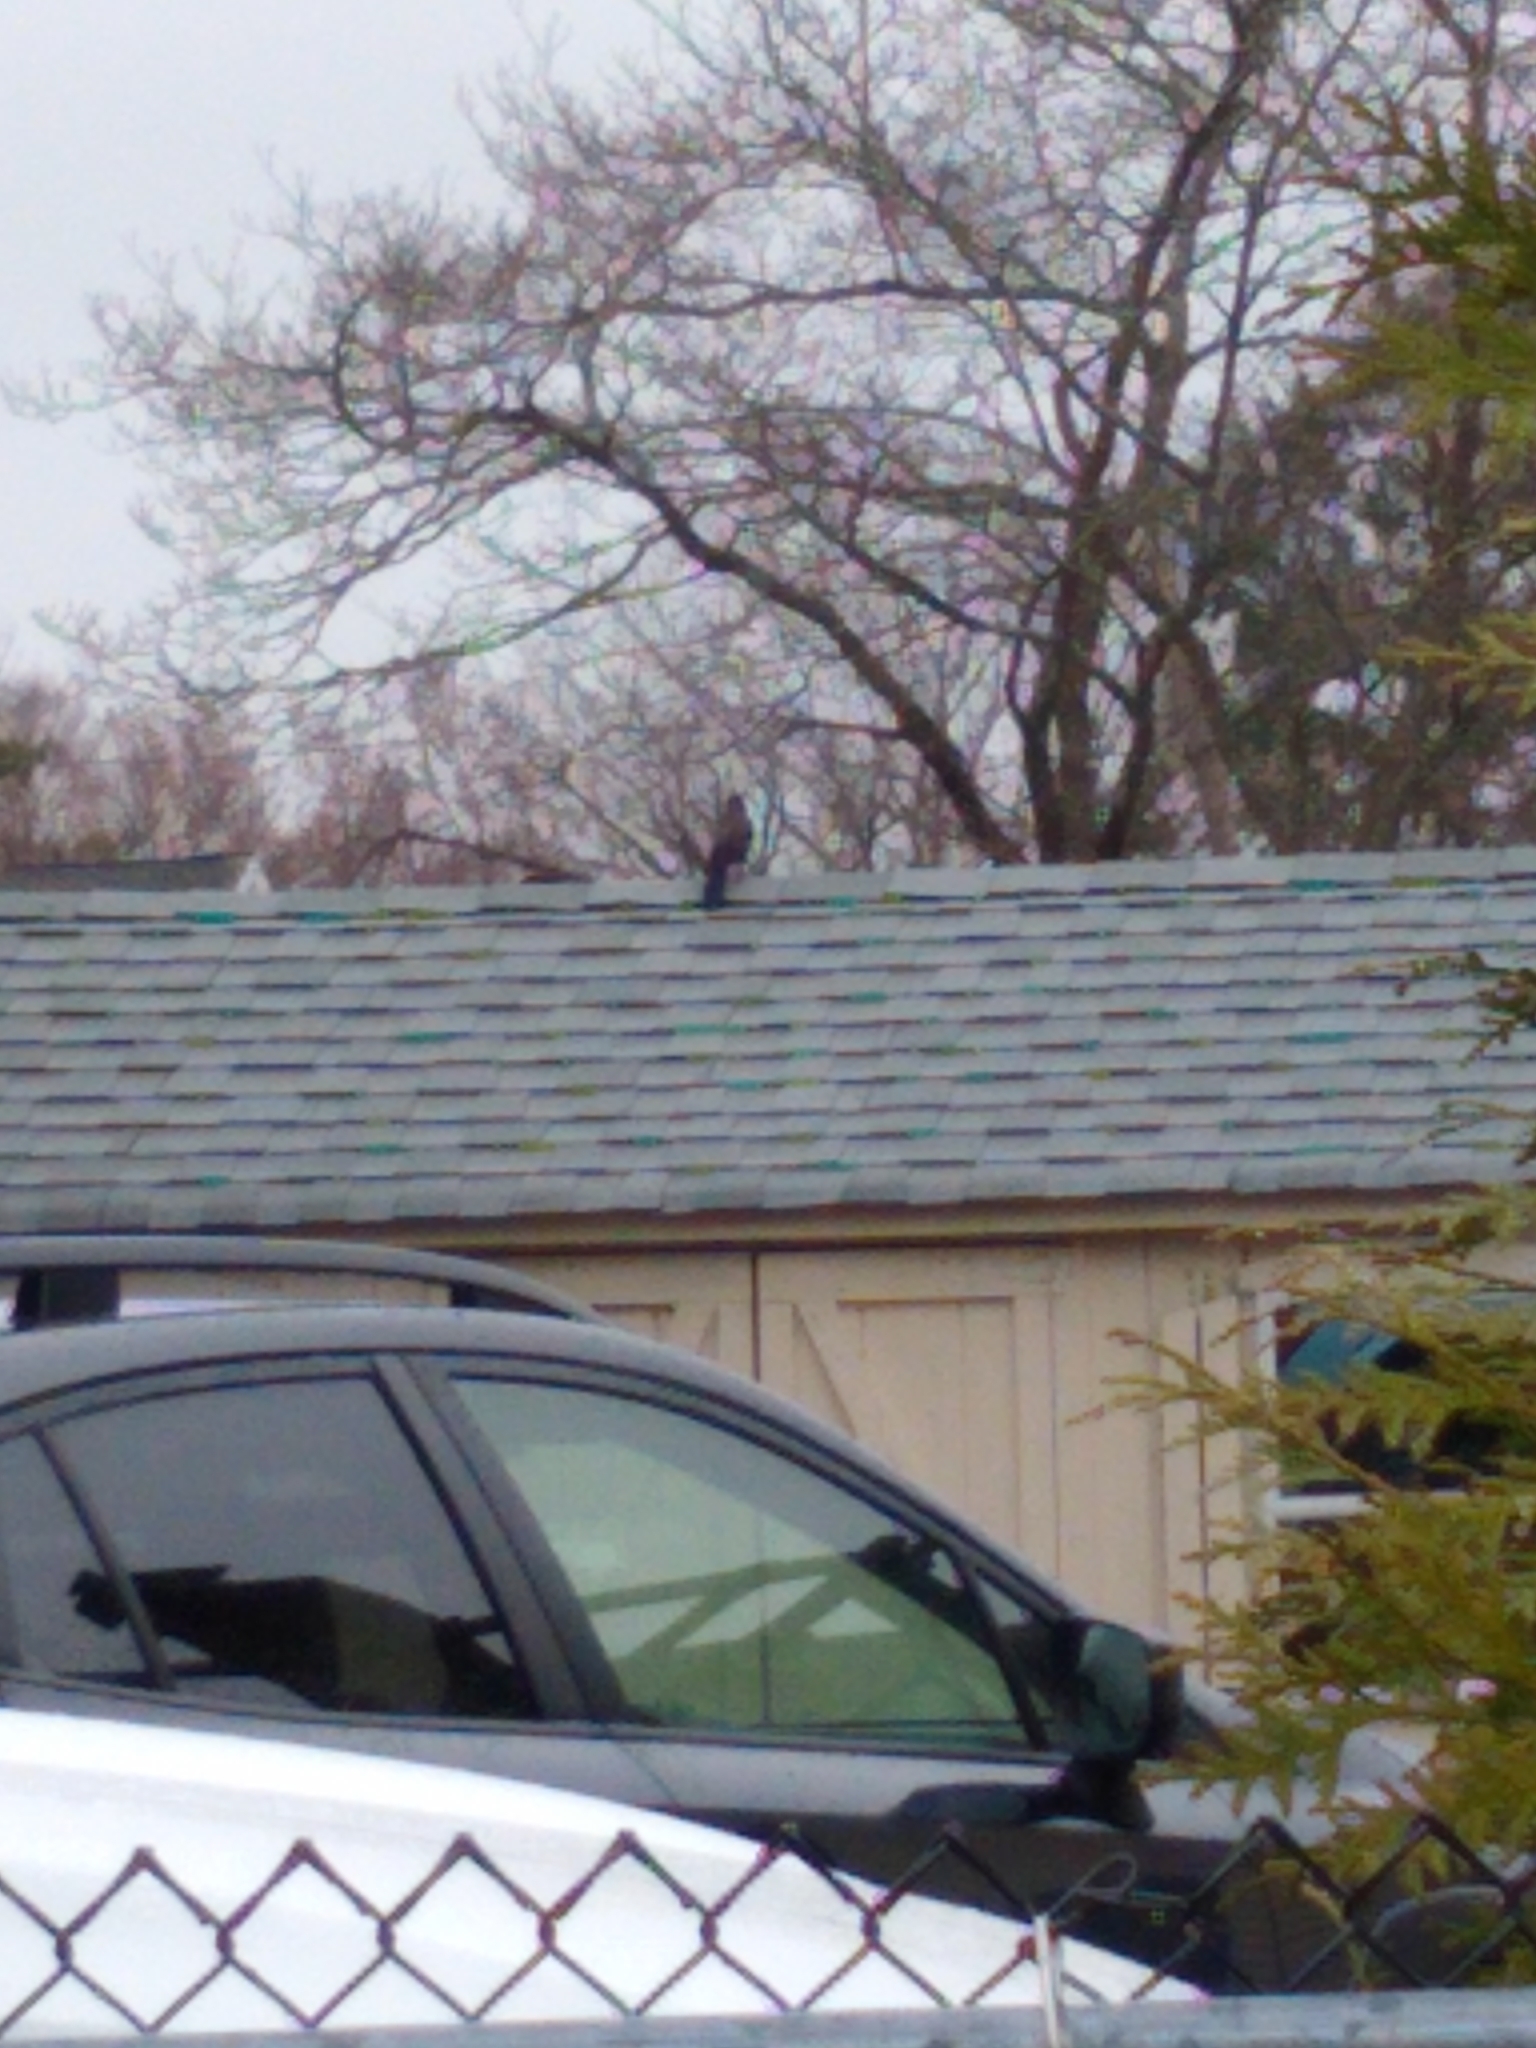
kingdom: Animalia
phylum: Chordata
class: Aves
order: Passeriformes
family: Icteridae
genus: Quiscalus
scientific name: Quiscalus quiscula
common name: Common grackle
